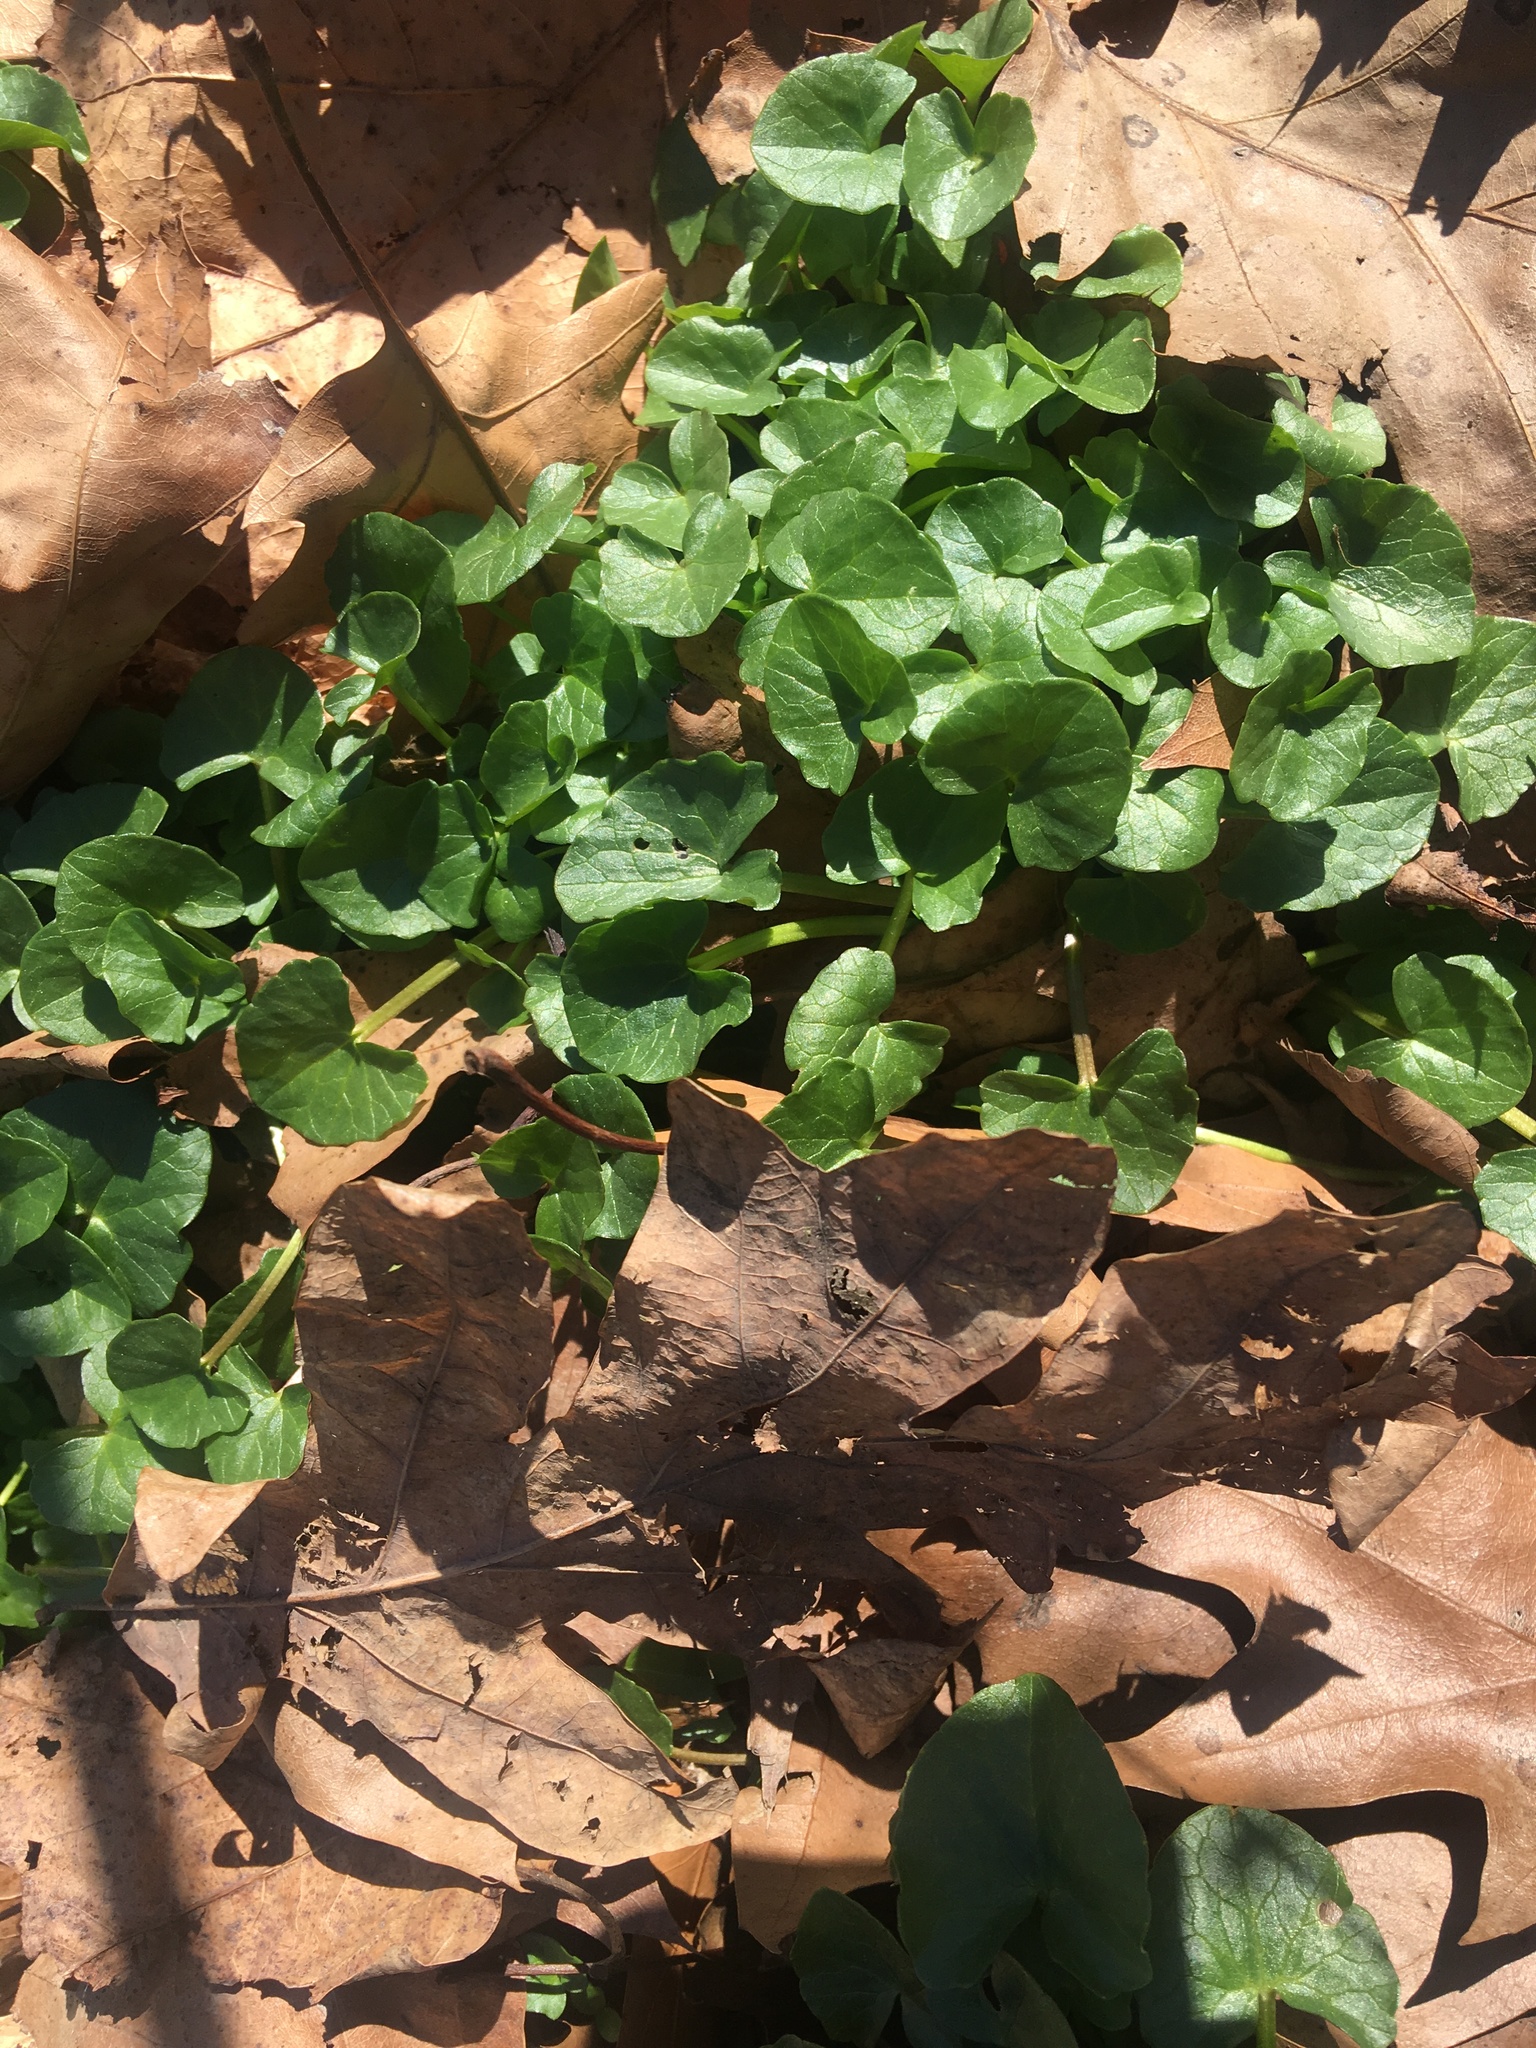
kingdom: Plantae
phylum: Tracheophyta
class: Magnoliopsida
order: Ranunculales
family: Ranunculaceae
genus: Ficaria
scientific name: Ficaria verna
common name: Lesser celandine
